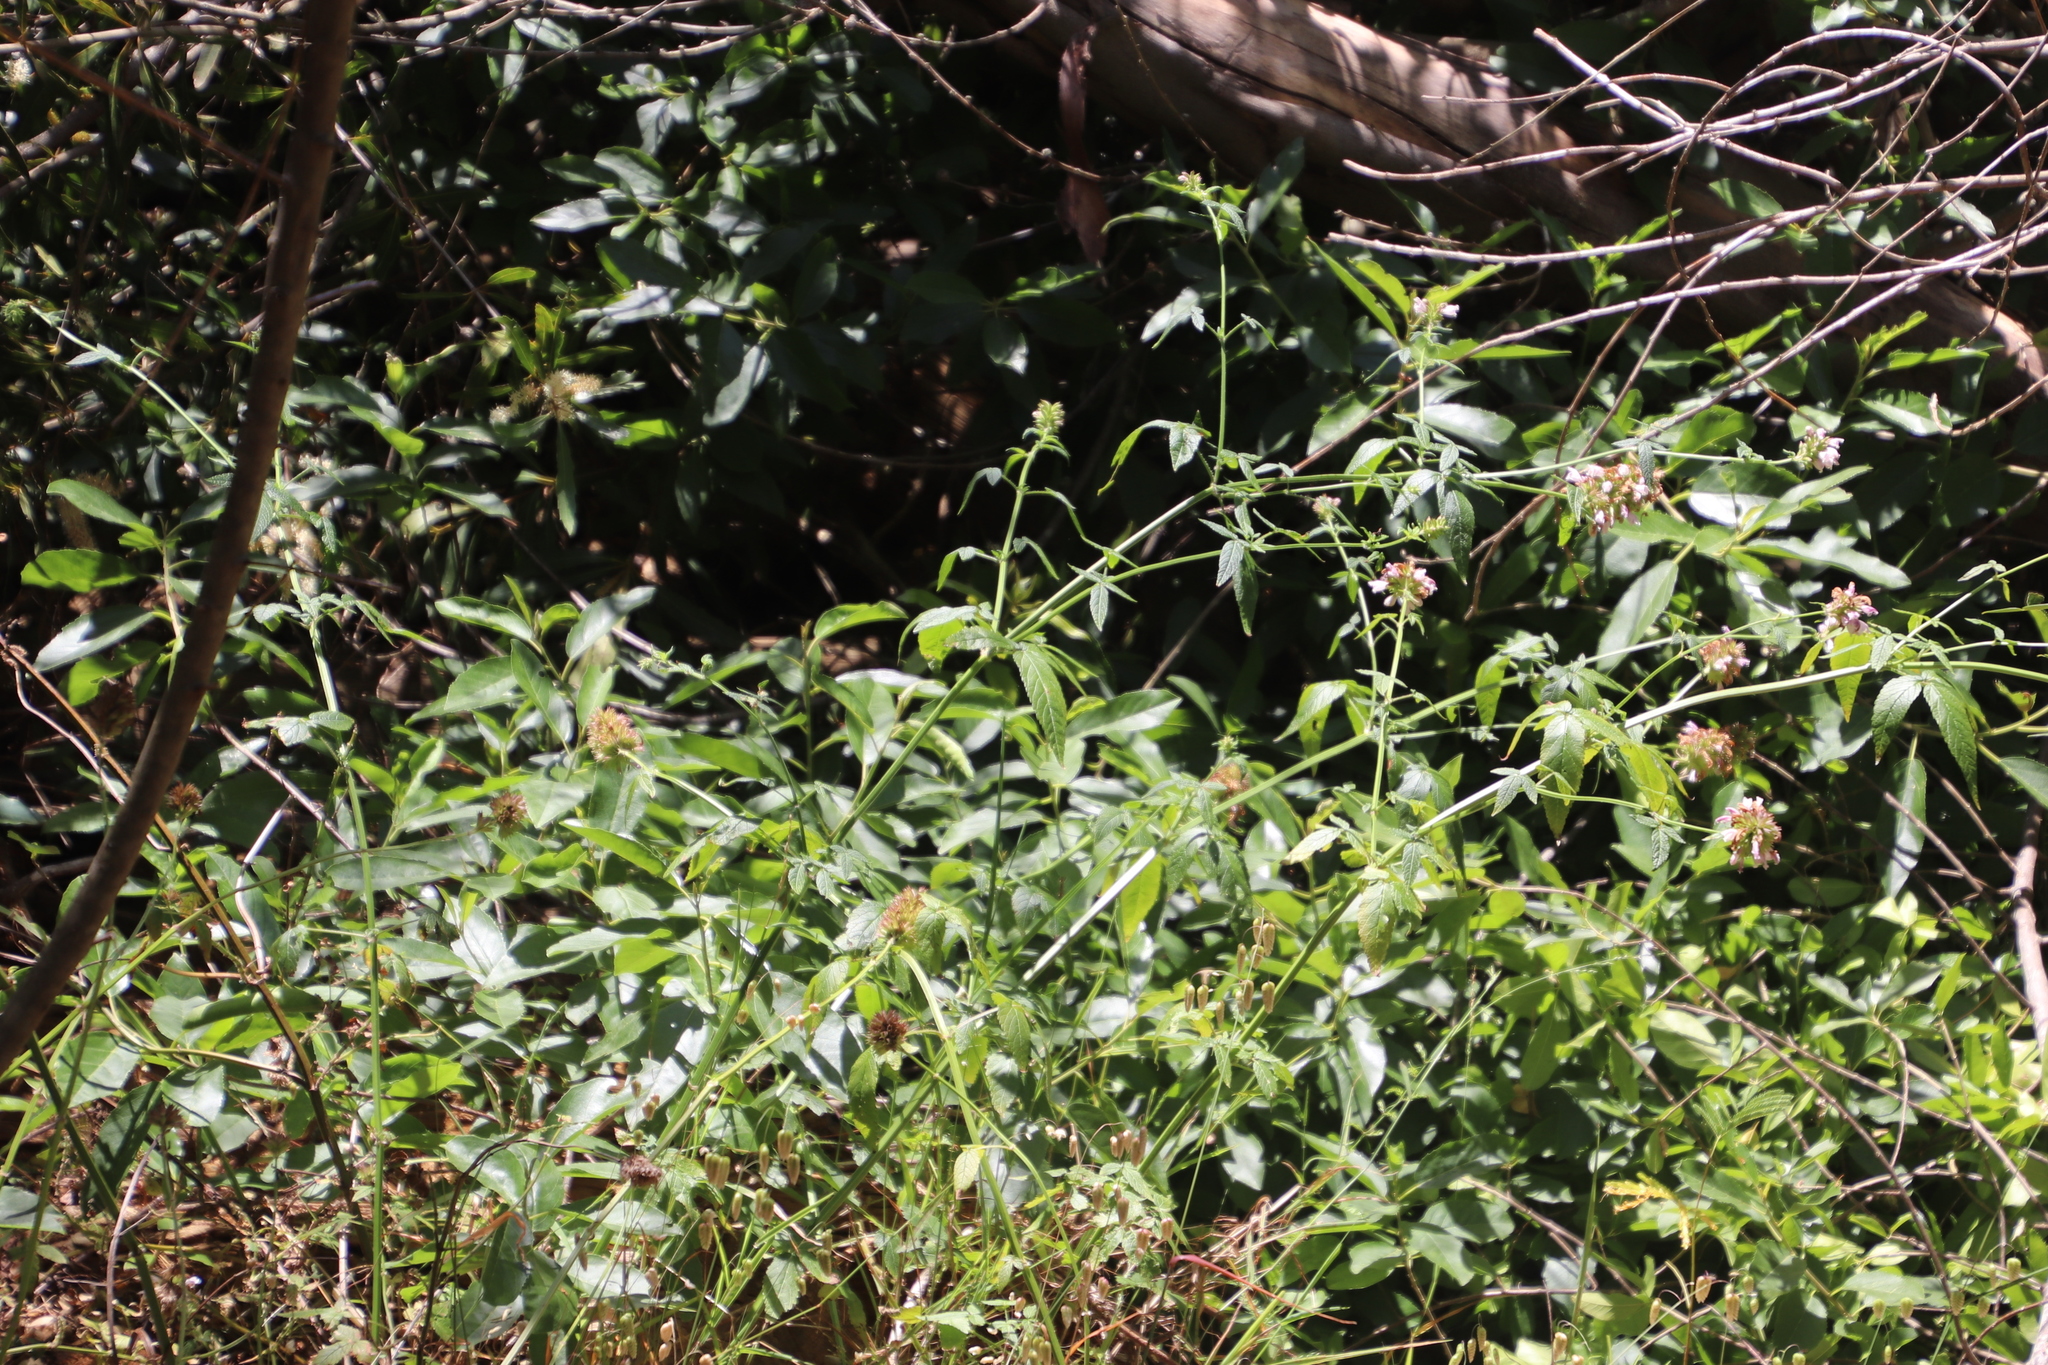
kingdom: Plantae
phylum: Tracheophyta
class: Magnoliopsida
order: Lamiales
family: Lamiaceae
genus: Cedronella
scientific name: Cedronella canariensis
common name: Canary islands balm
